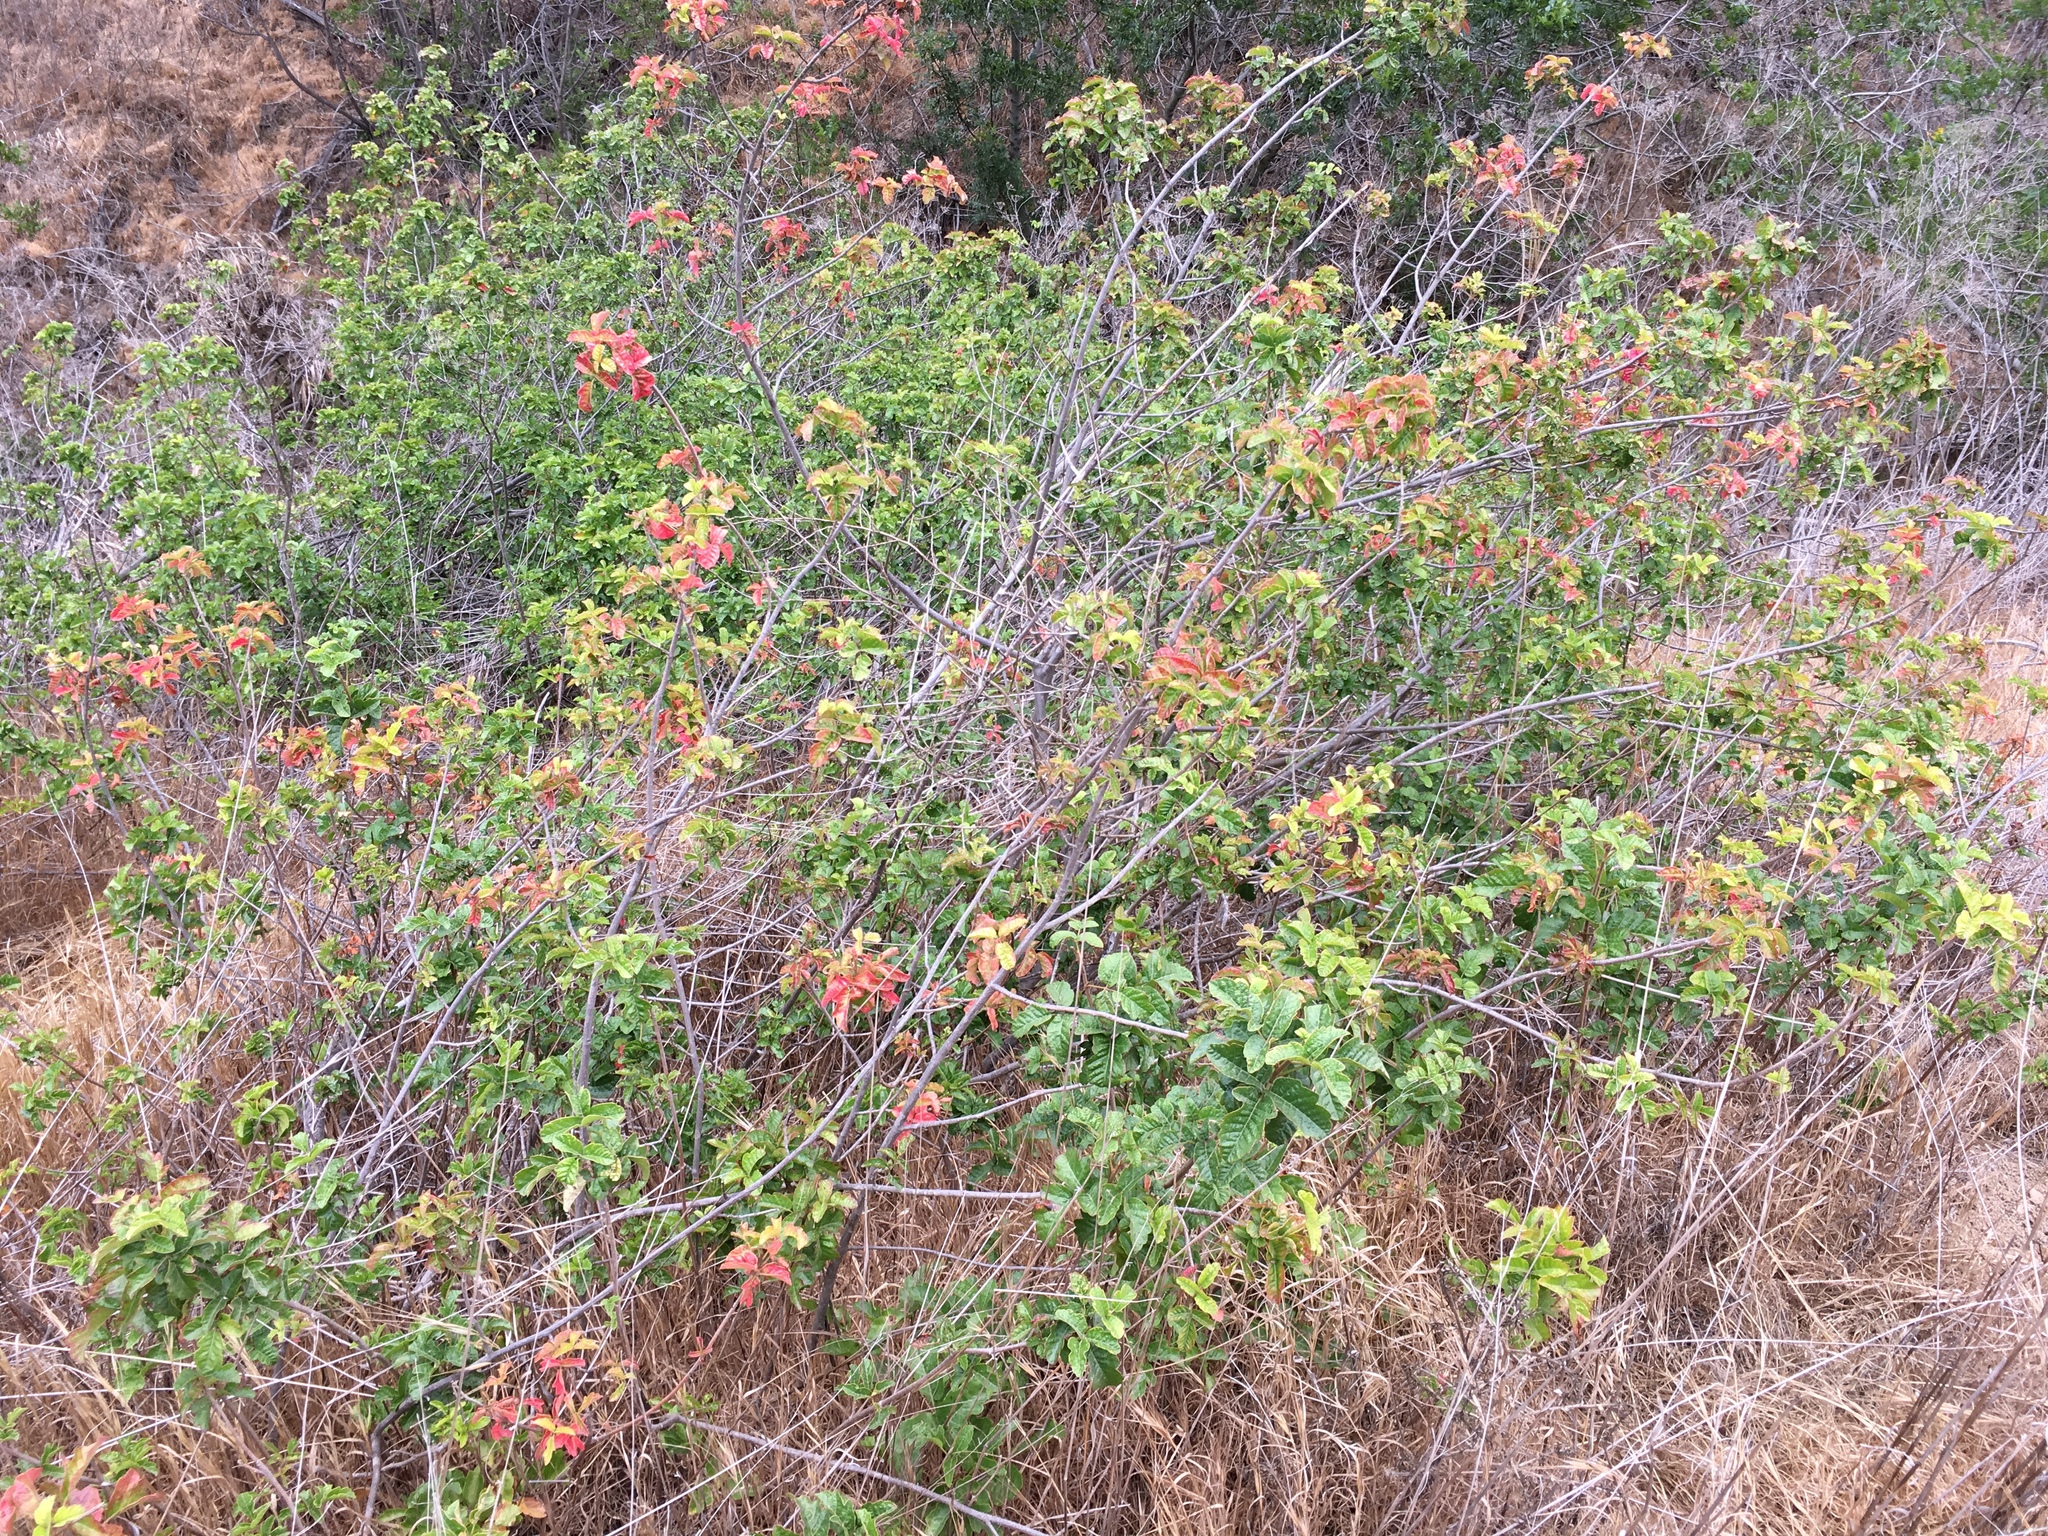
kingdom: Plantae
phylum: Tracheophyta
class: Magnoliopsida
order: Sapindales
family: Anacardiaceae
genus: Toxicodendron
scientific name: Toxicodendron diversilobum
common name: Pacific poison-oak
